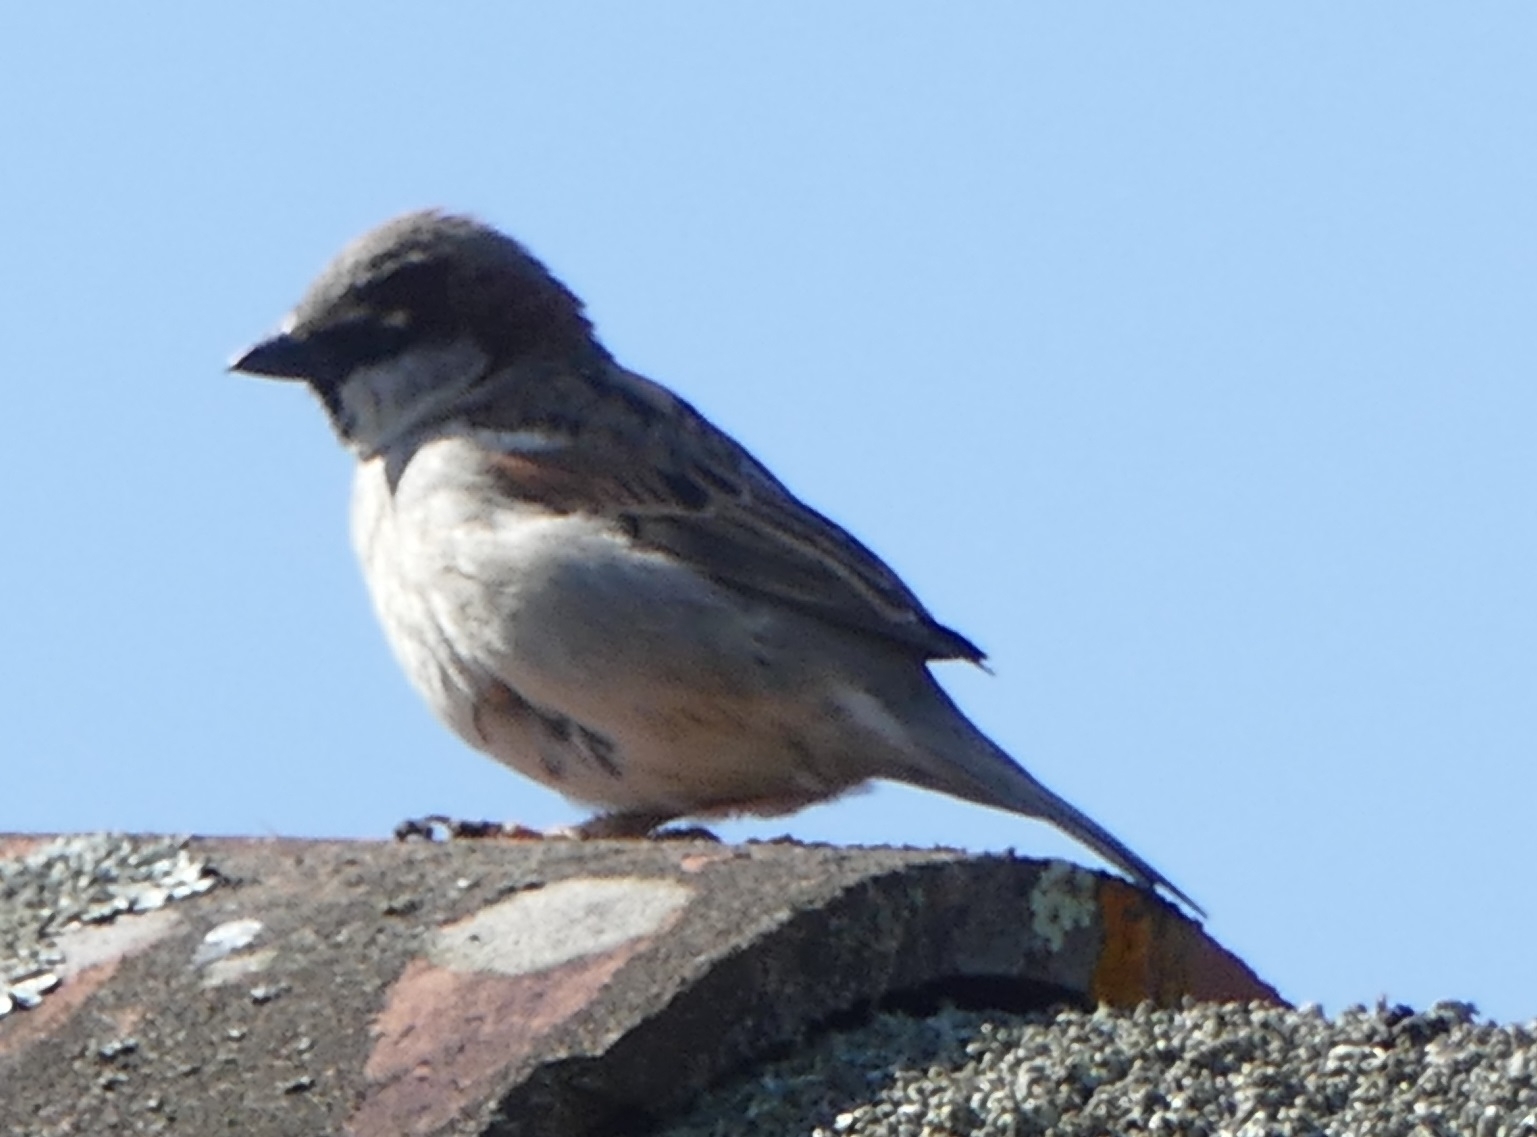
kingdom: Animalia
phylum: Chordata
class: Aves
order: Passeriformes
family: Passeridae
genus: Passer
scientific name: Passer domesticus
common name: House sparrow
